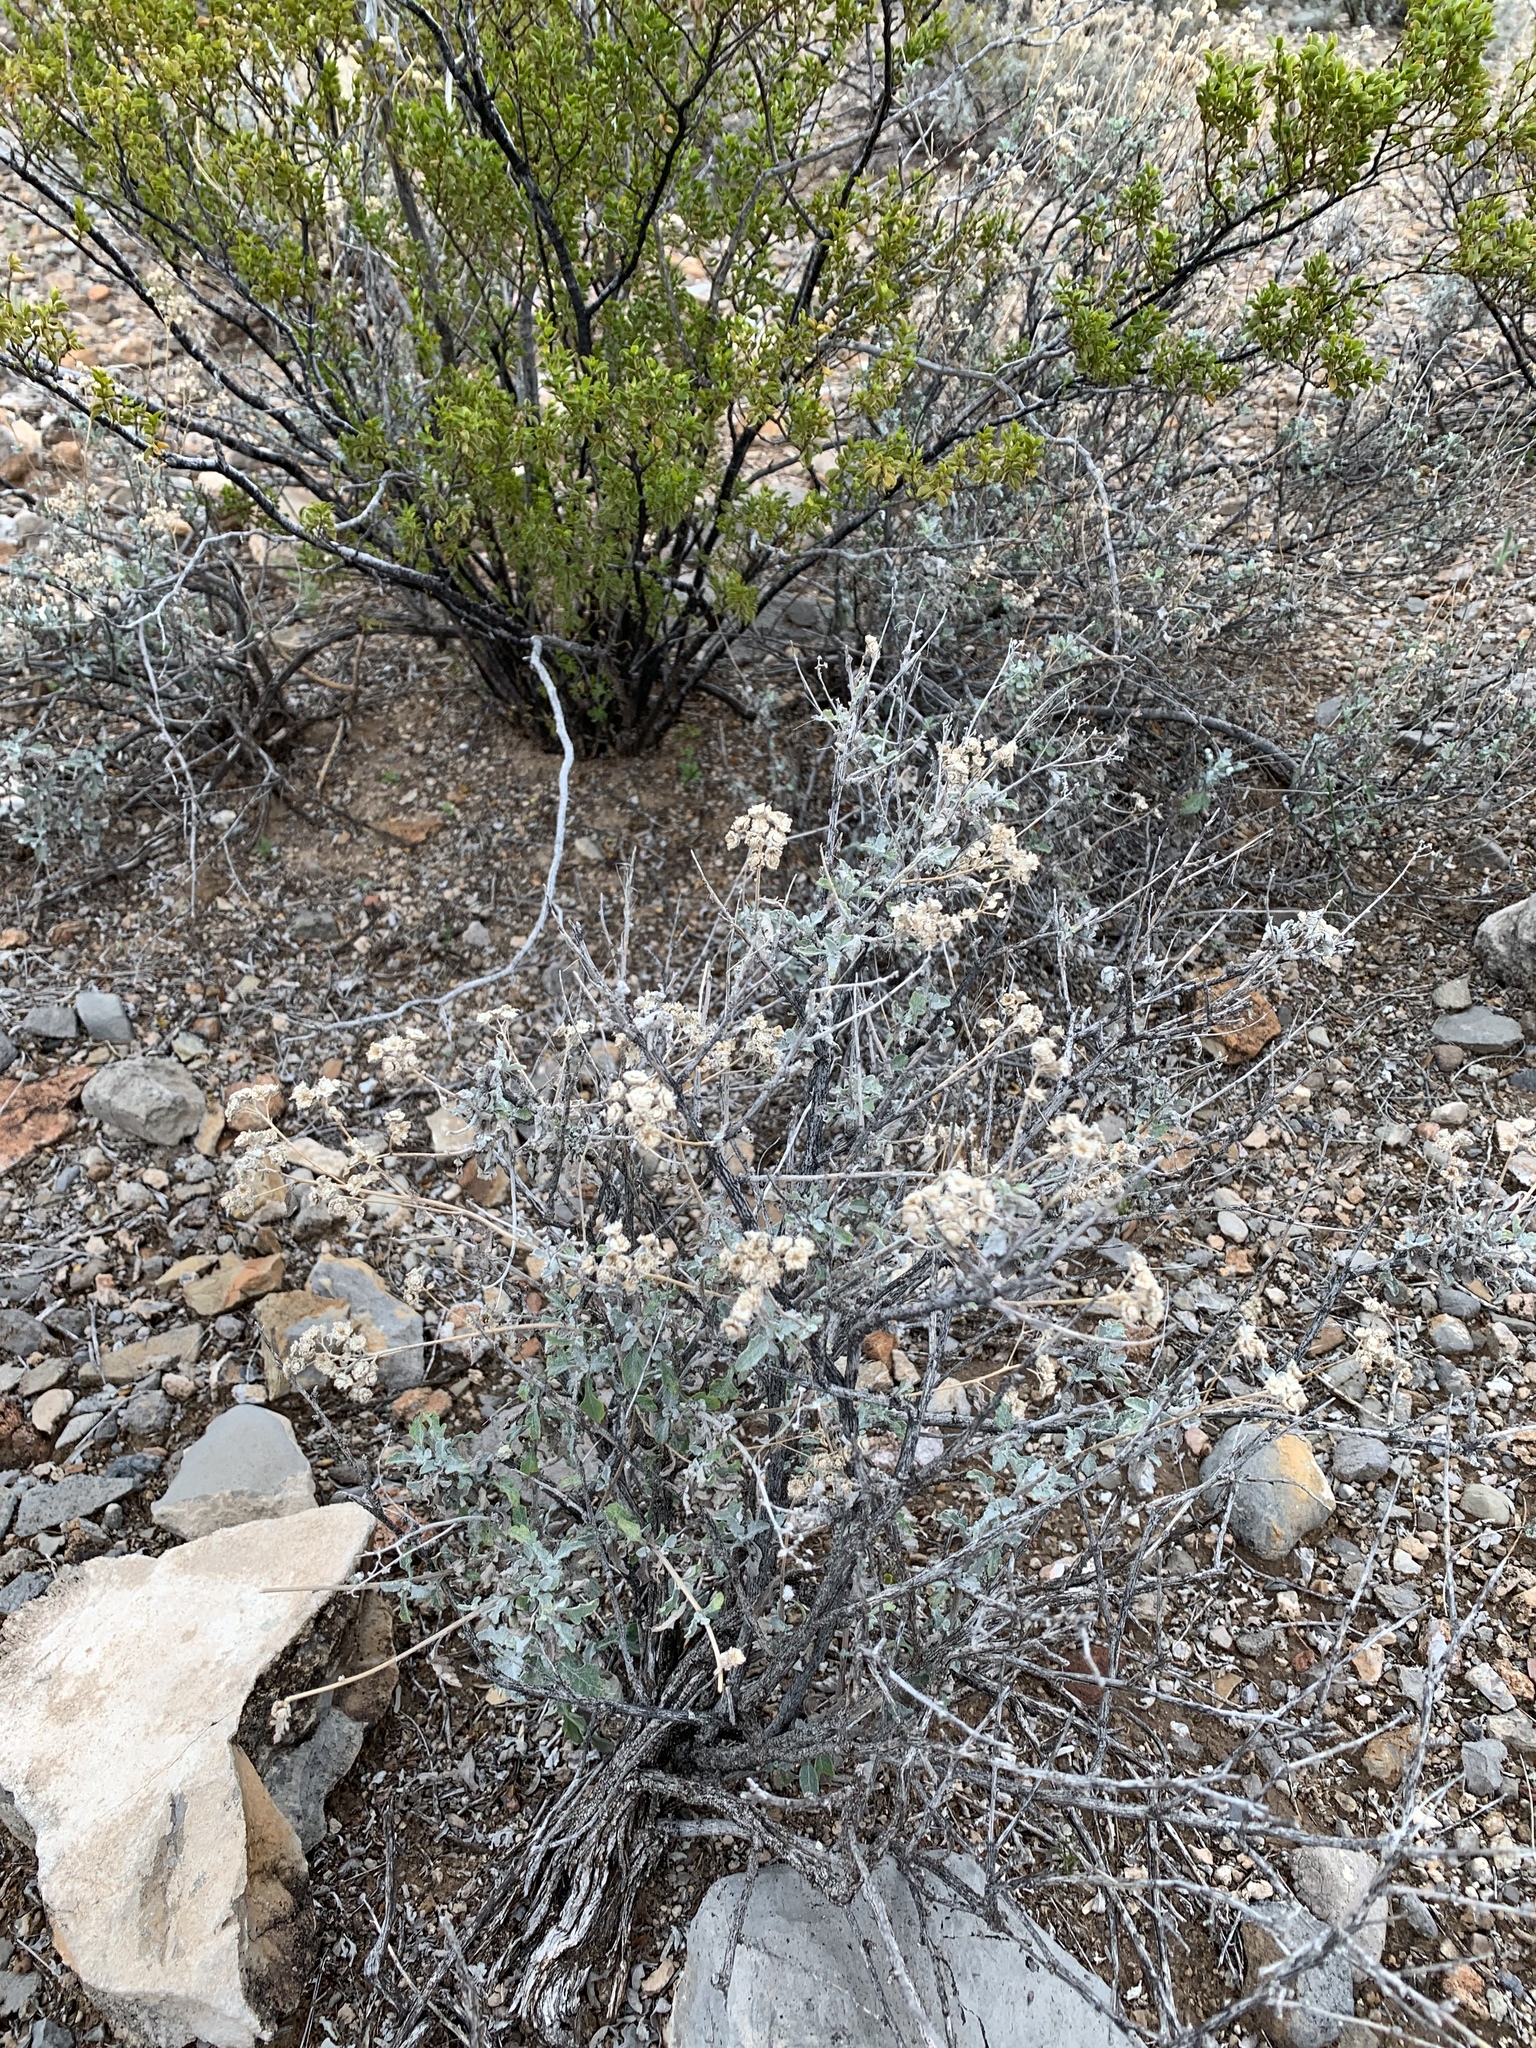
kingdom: Plantae
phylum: Tracheophyta
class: Magnoliopsida
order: Asterales
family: Asteraceae
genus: Parthenium
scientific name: Parthenium incanum
